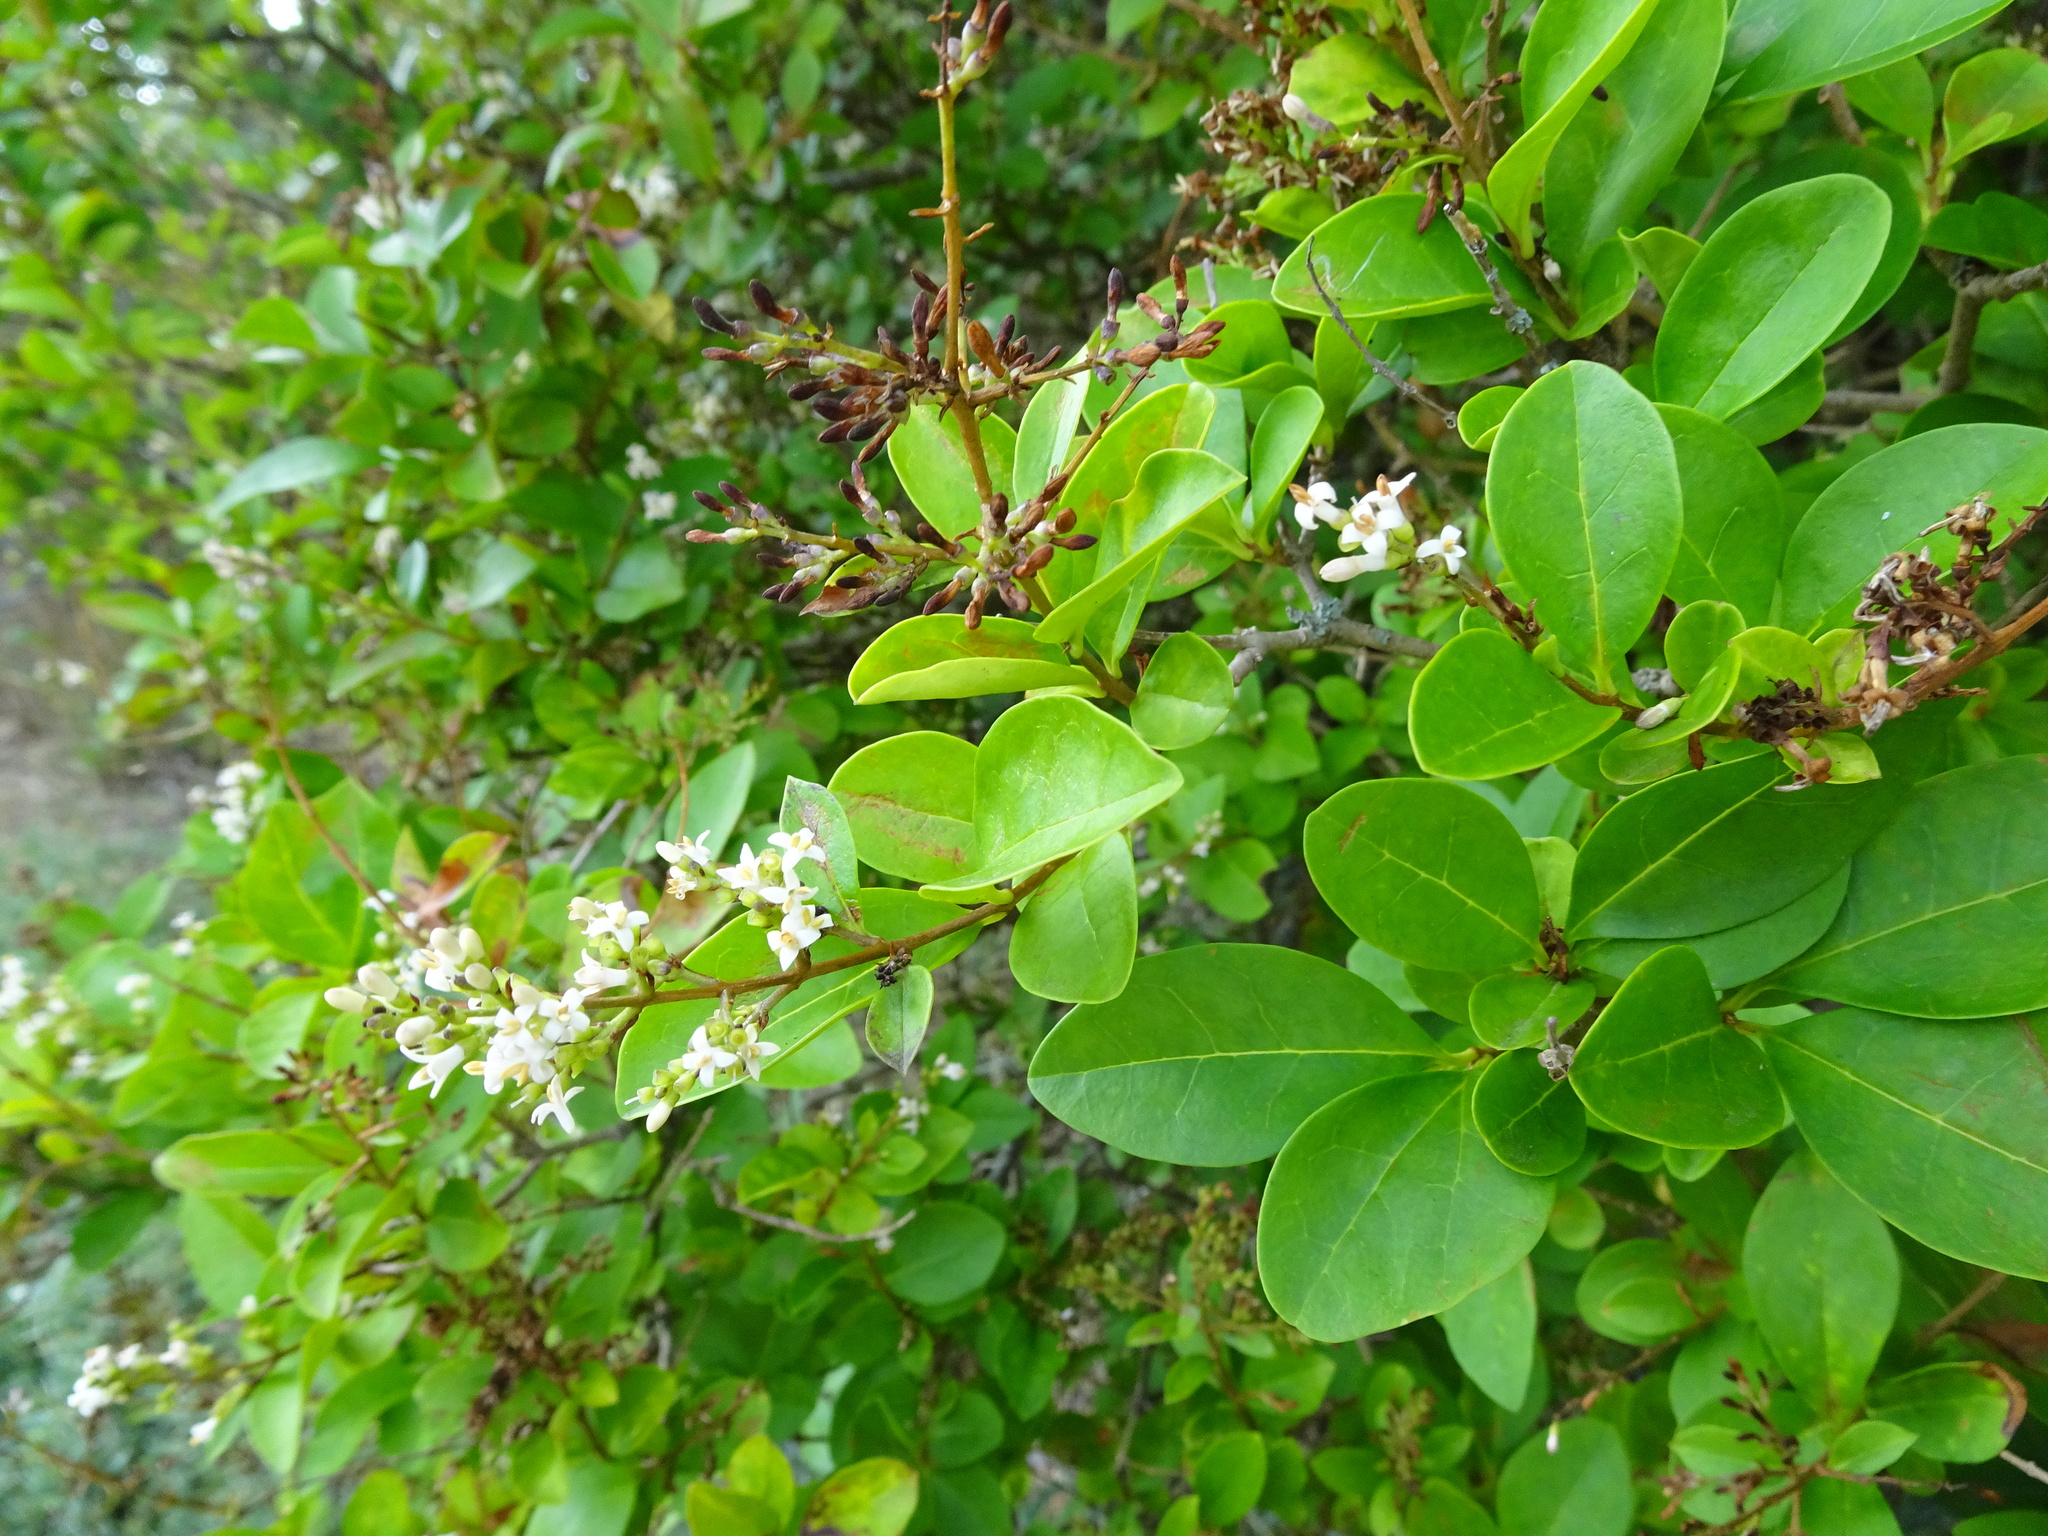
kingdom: Plantae
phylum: Tracheophyta
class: Magnoliopsida
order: Lamiales
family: Oleaceae
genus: Ligustrum
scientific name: Ligustrum ovalifolium
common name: California privet
